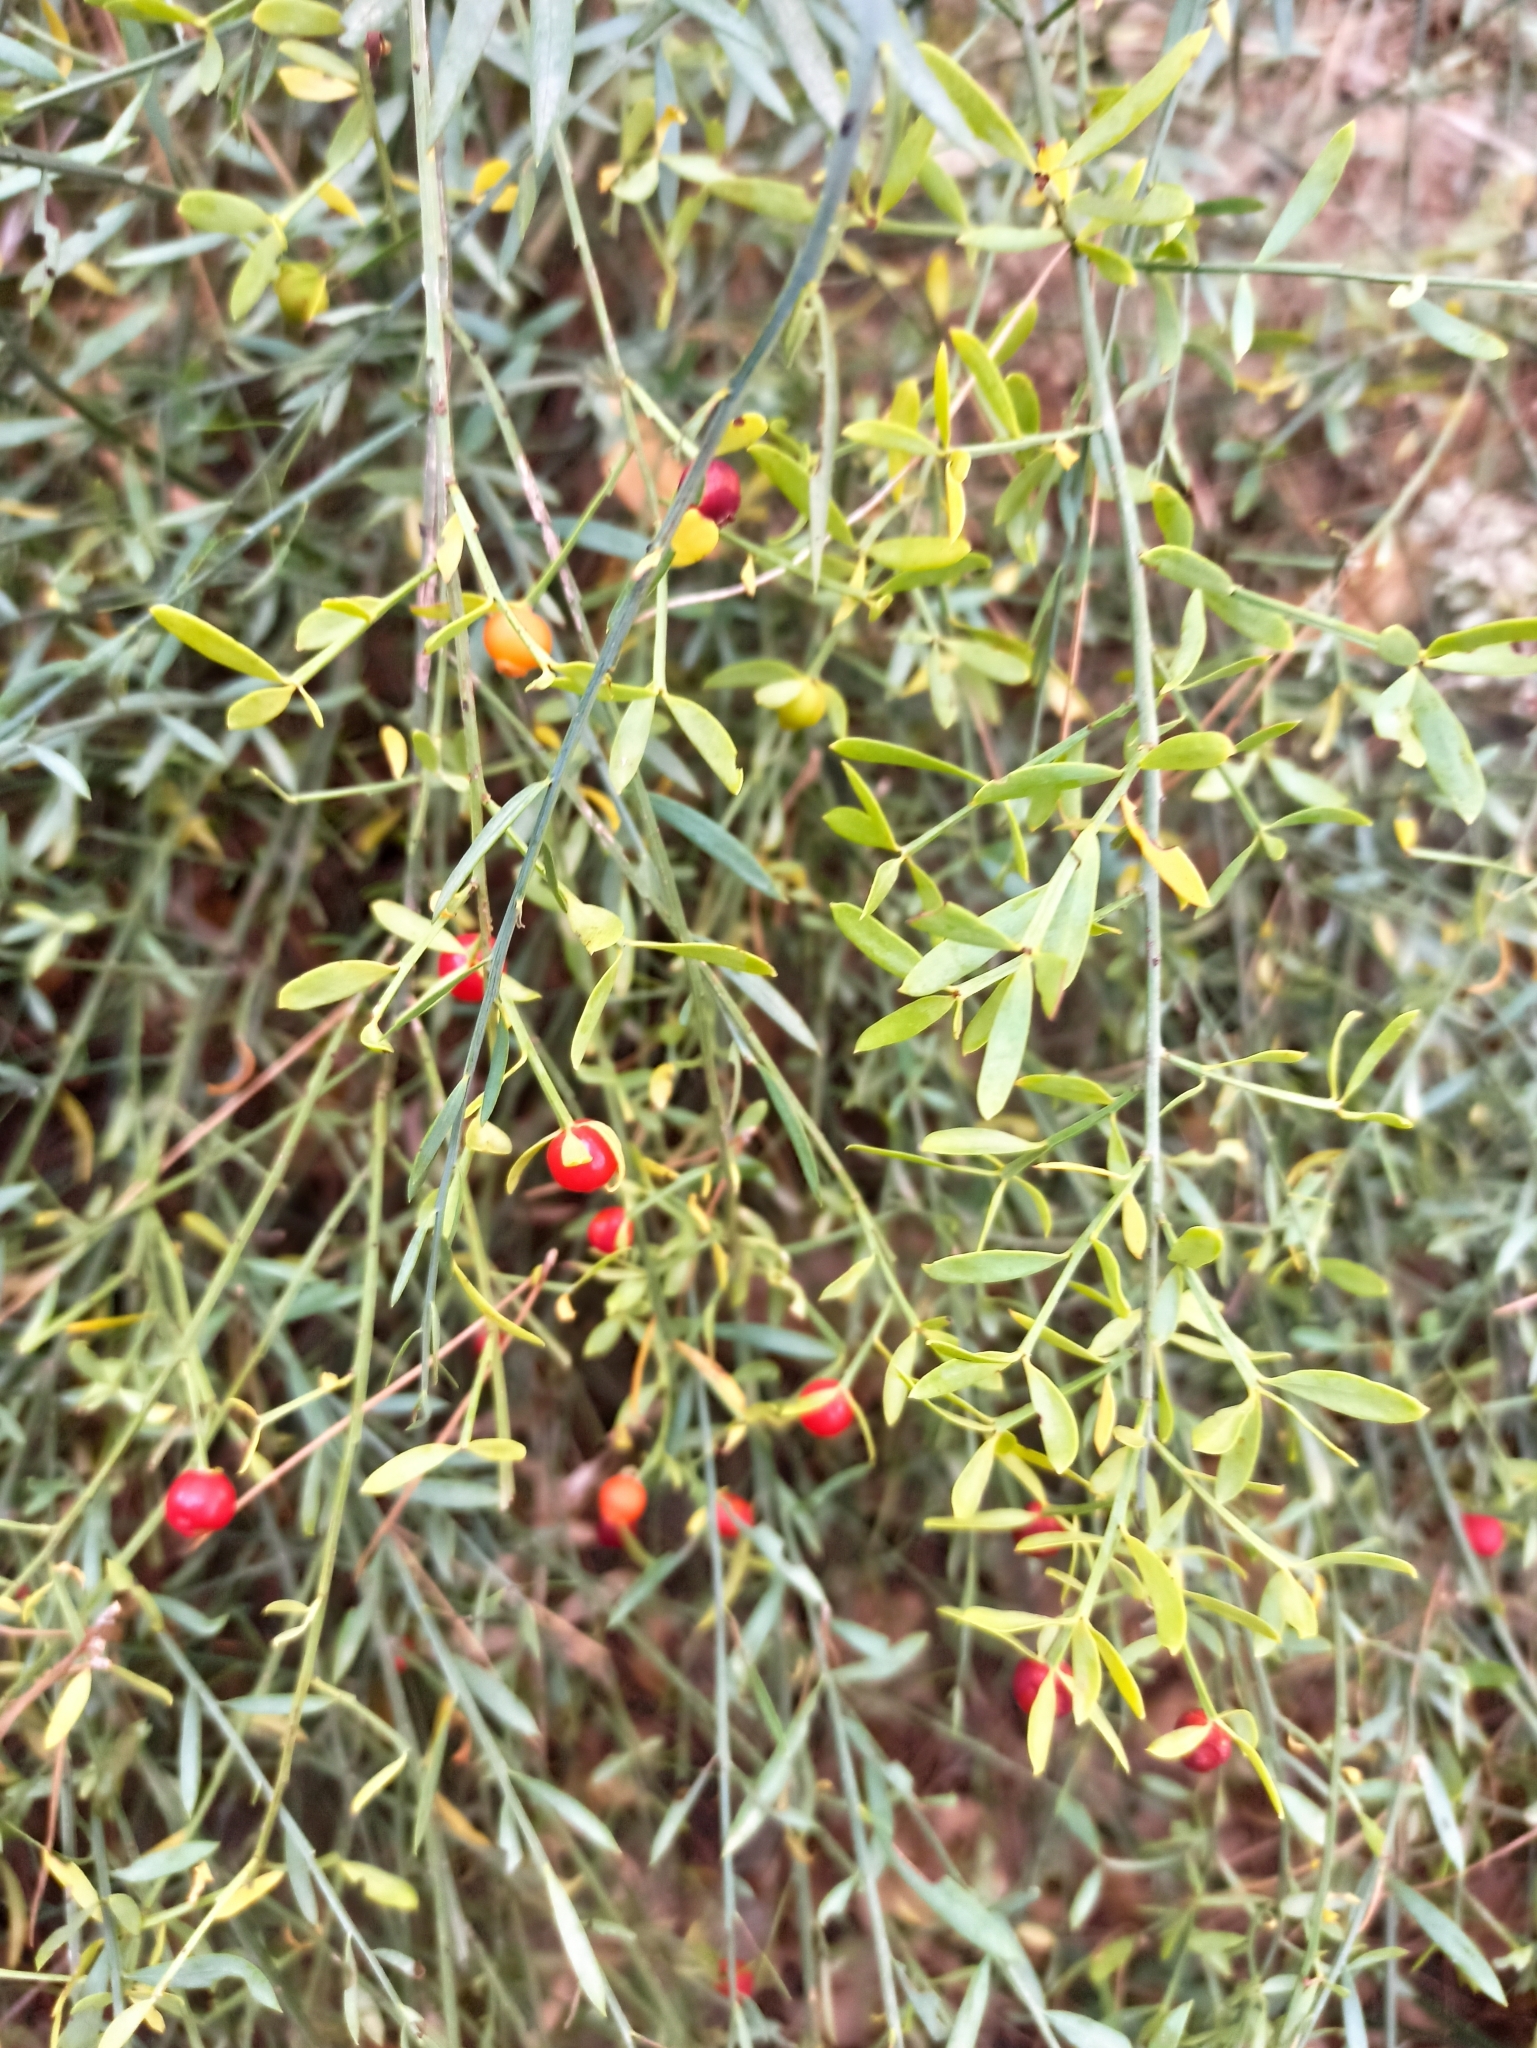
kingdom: Plantae
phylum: Tracheophyta
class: Magnoliopsida
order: Santalales
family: Santalaceae
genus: Osyris
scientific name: Osyris alba
